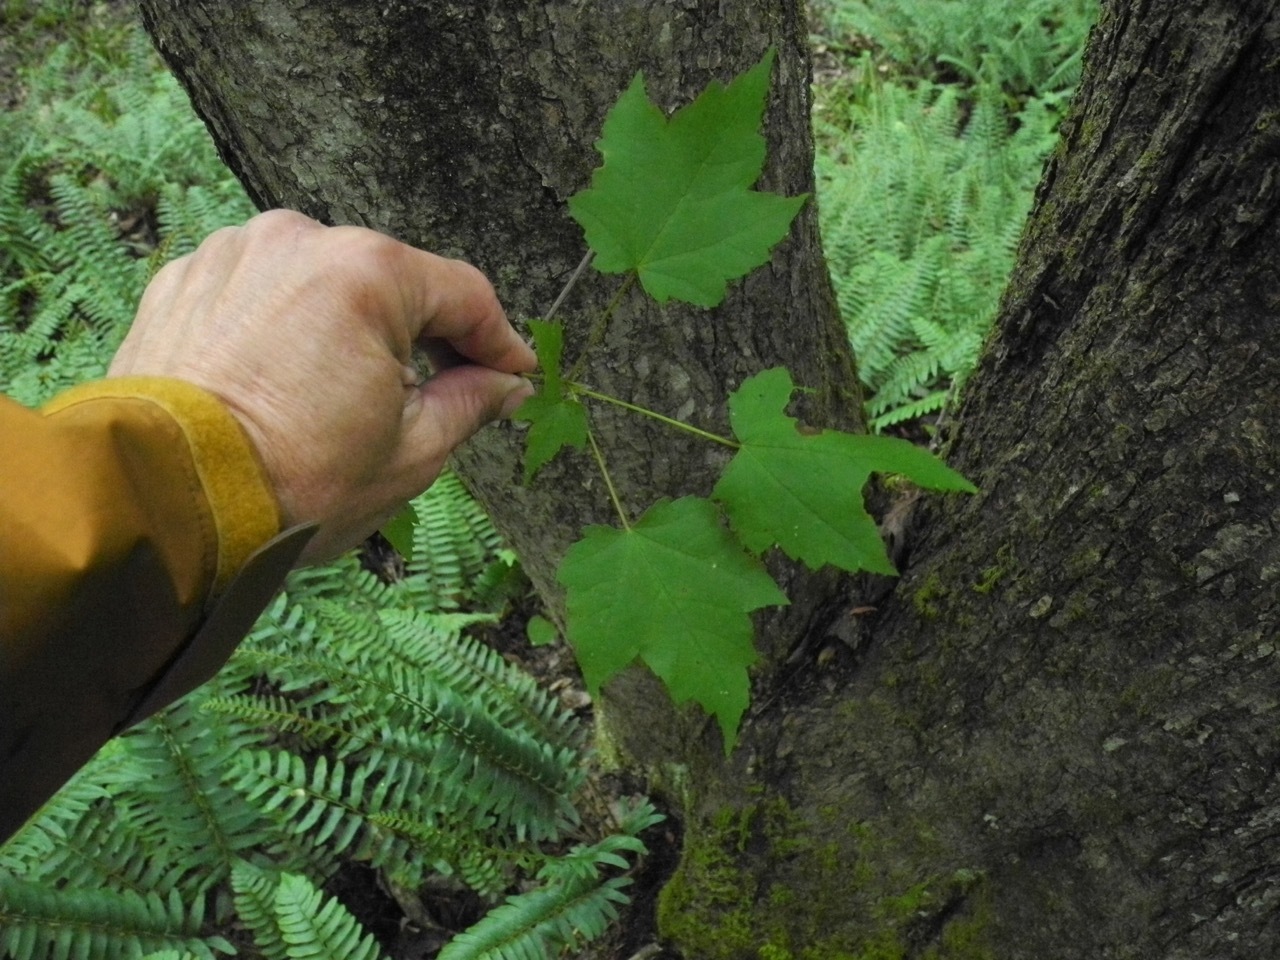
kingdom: Plantae
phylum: Tracheophyta
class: Magnoliopsida
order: Sapindales
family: Sapindaceae
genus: Acer
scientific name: Acer freemanii
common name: Freeman maple
